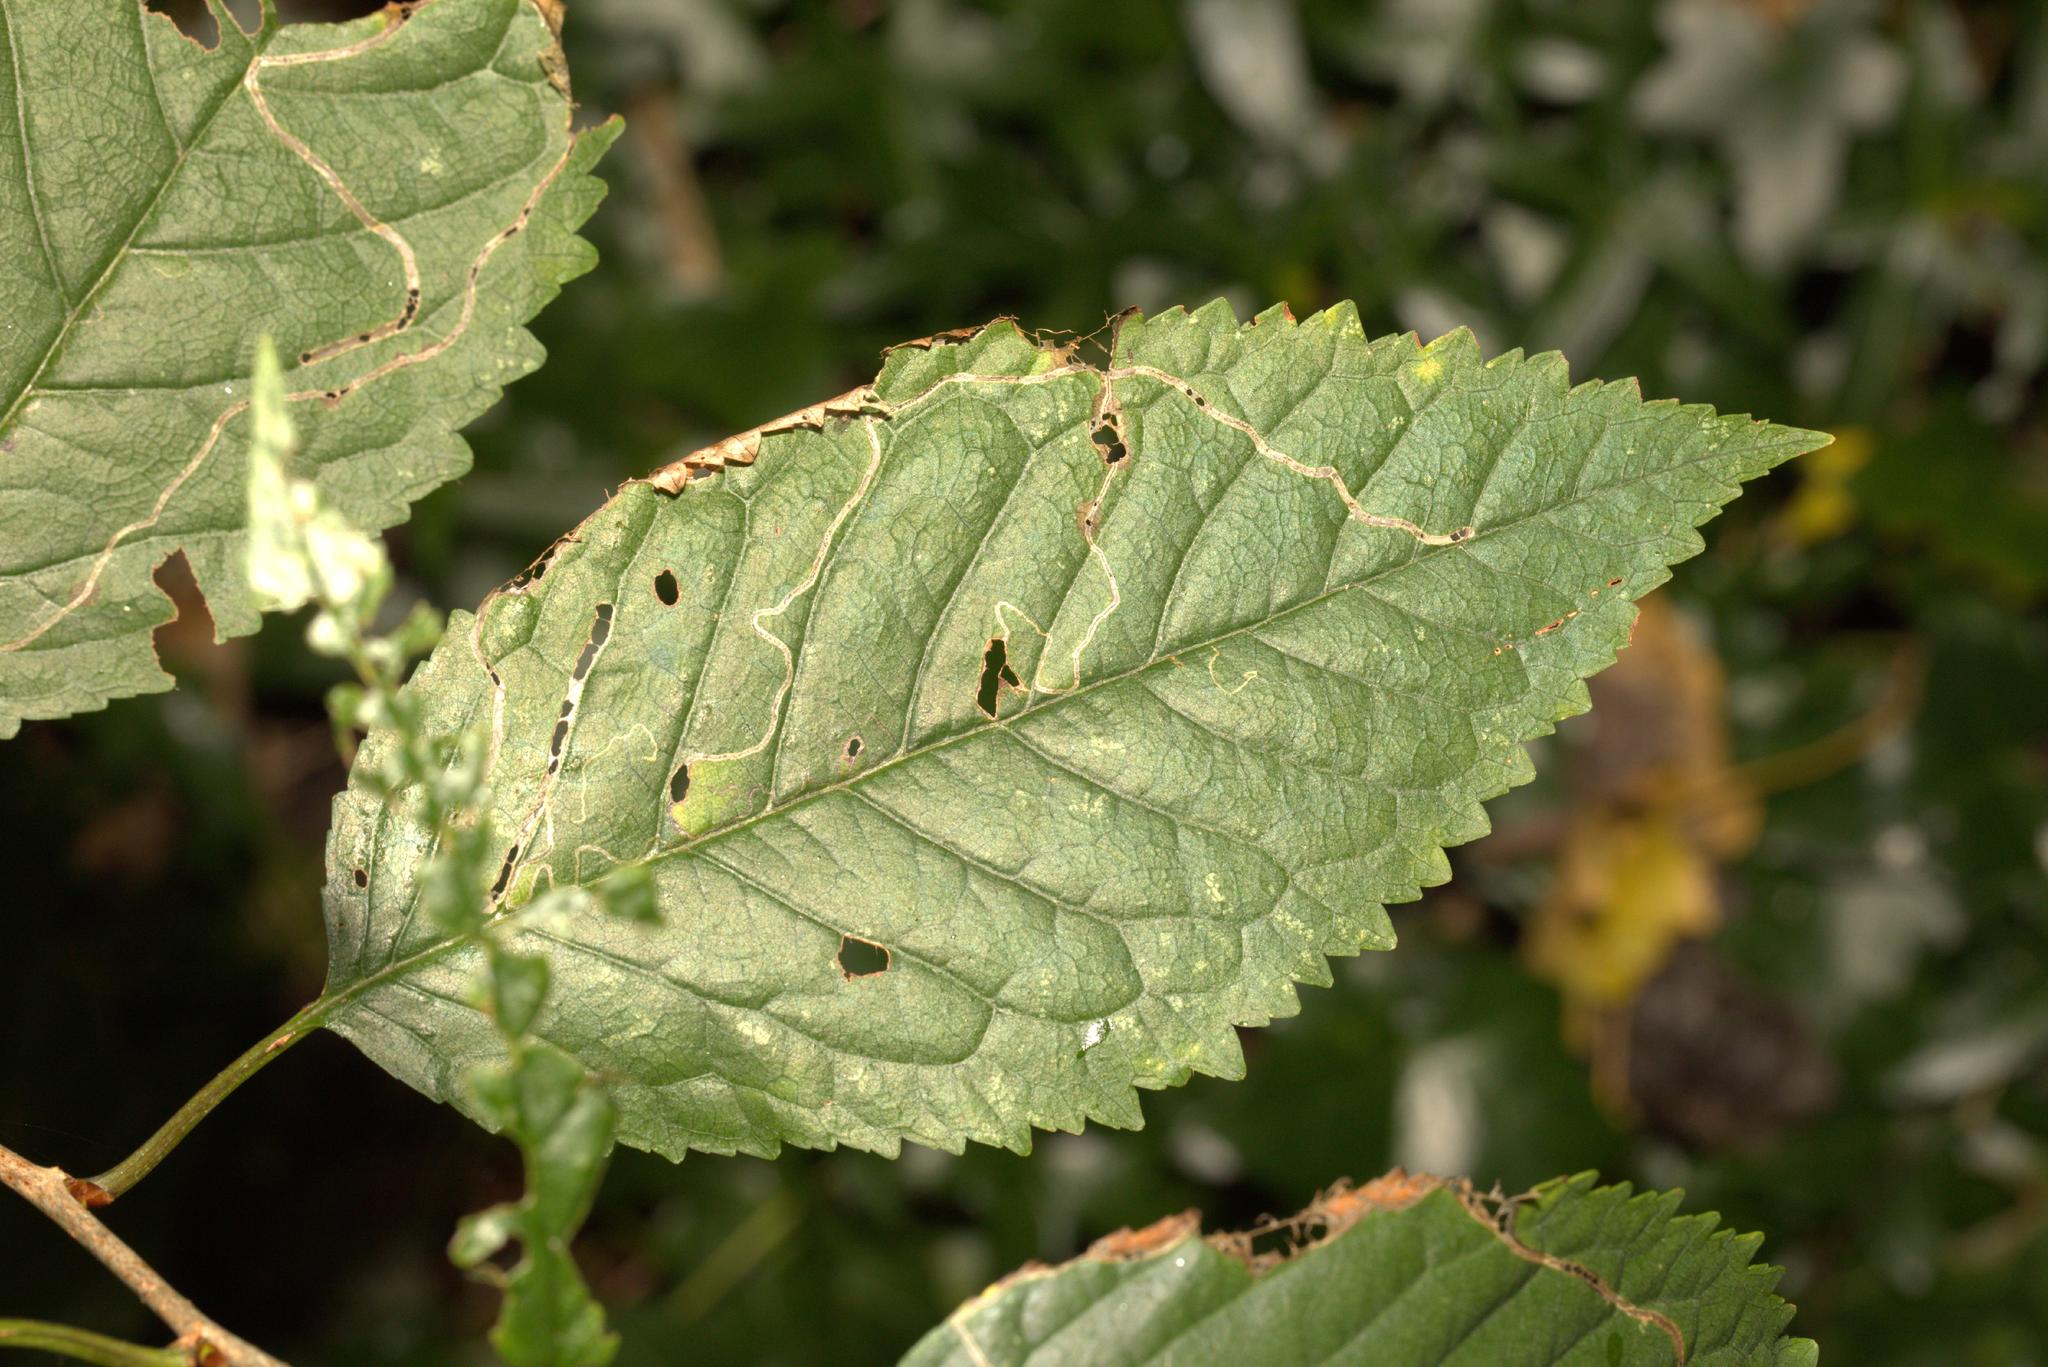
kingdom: Animalia
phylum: Arthropoda
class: Insecta
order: Lepidoptera
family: Lyonetiidae
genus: Lyonetia
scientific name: Lyonetia clerkella
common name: Apple leaf miner
